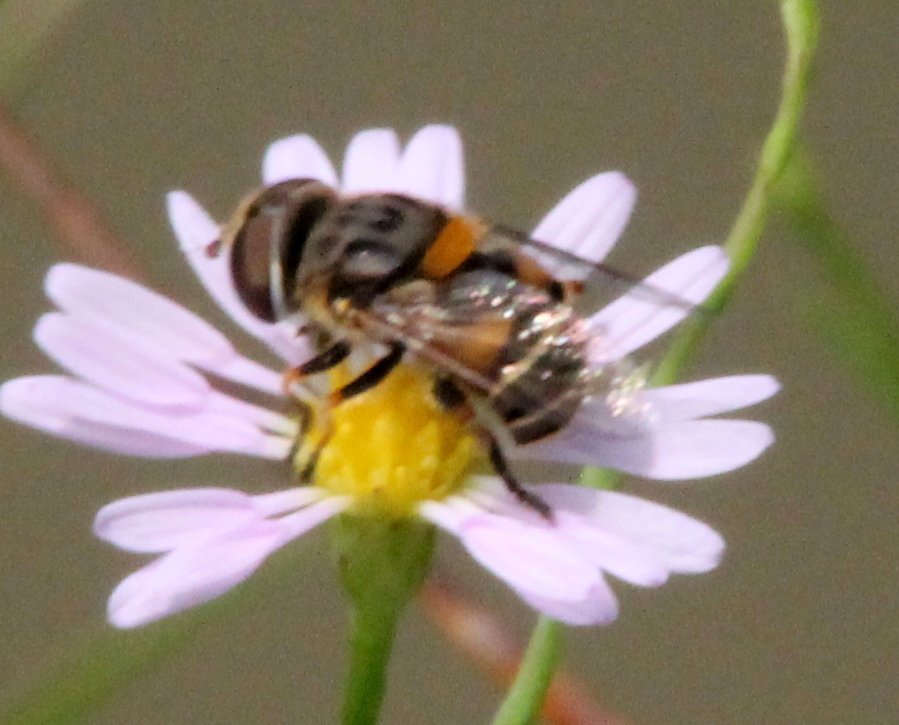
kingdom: Animalia
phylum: Arthropoda
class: Insecta
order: Diptera
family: Syrphidae
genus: Palpada
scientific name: Palpada texana
